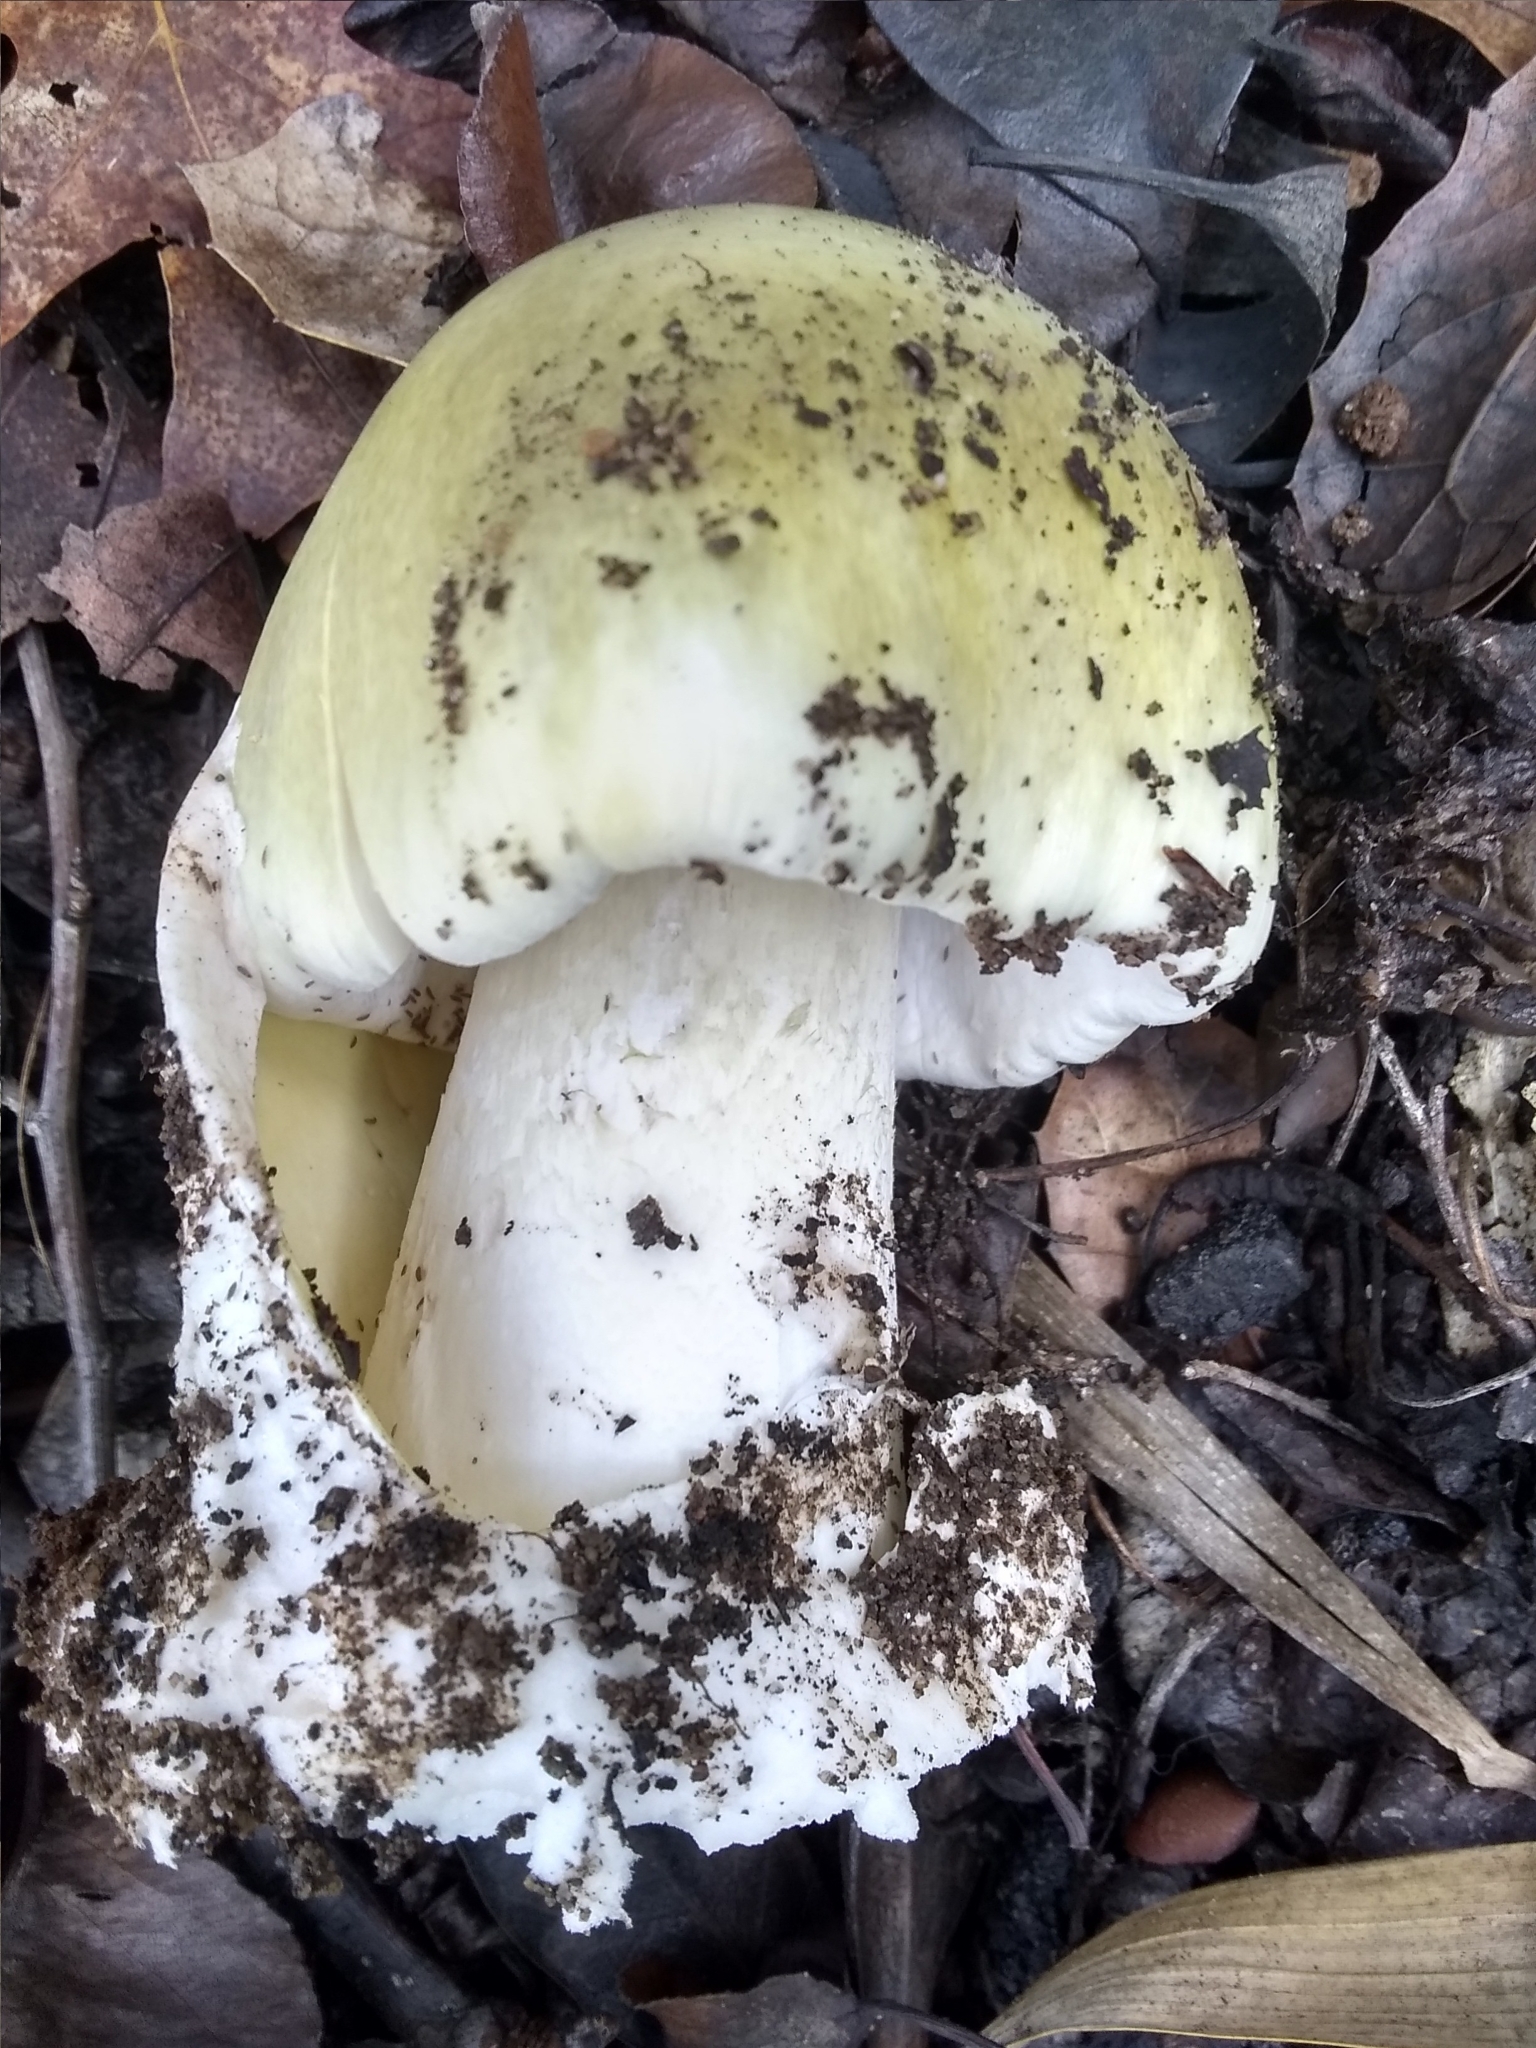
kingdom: Fungi
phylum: Basidiomycota
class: Agaricomycetes
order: Agaricales
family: Amanitaceae
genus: Amanita
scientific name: Amanita phalloides
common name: Death cap
